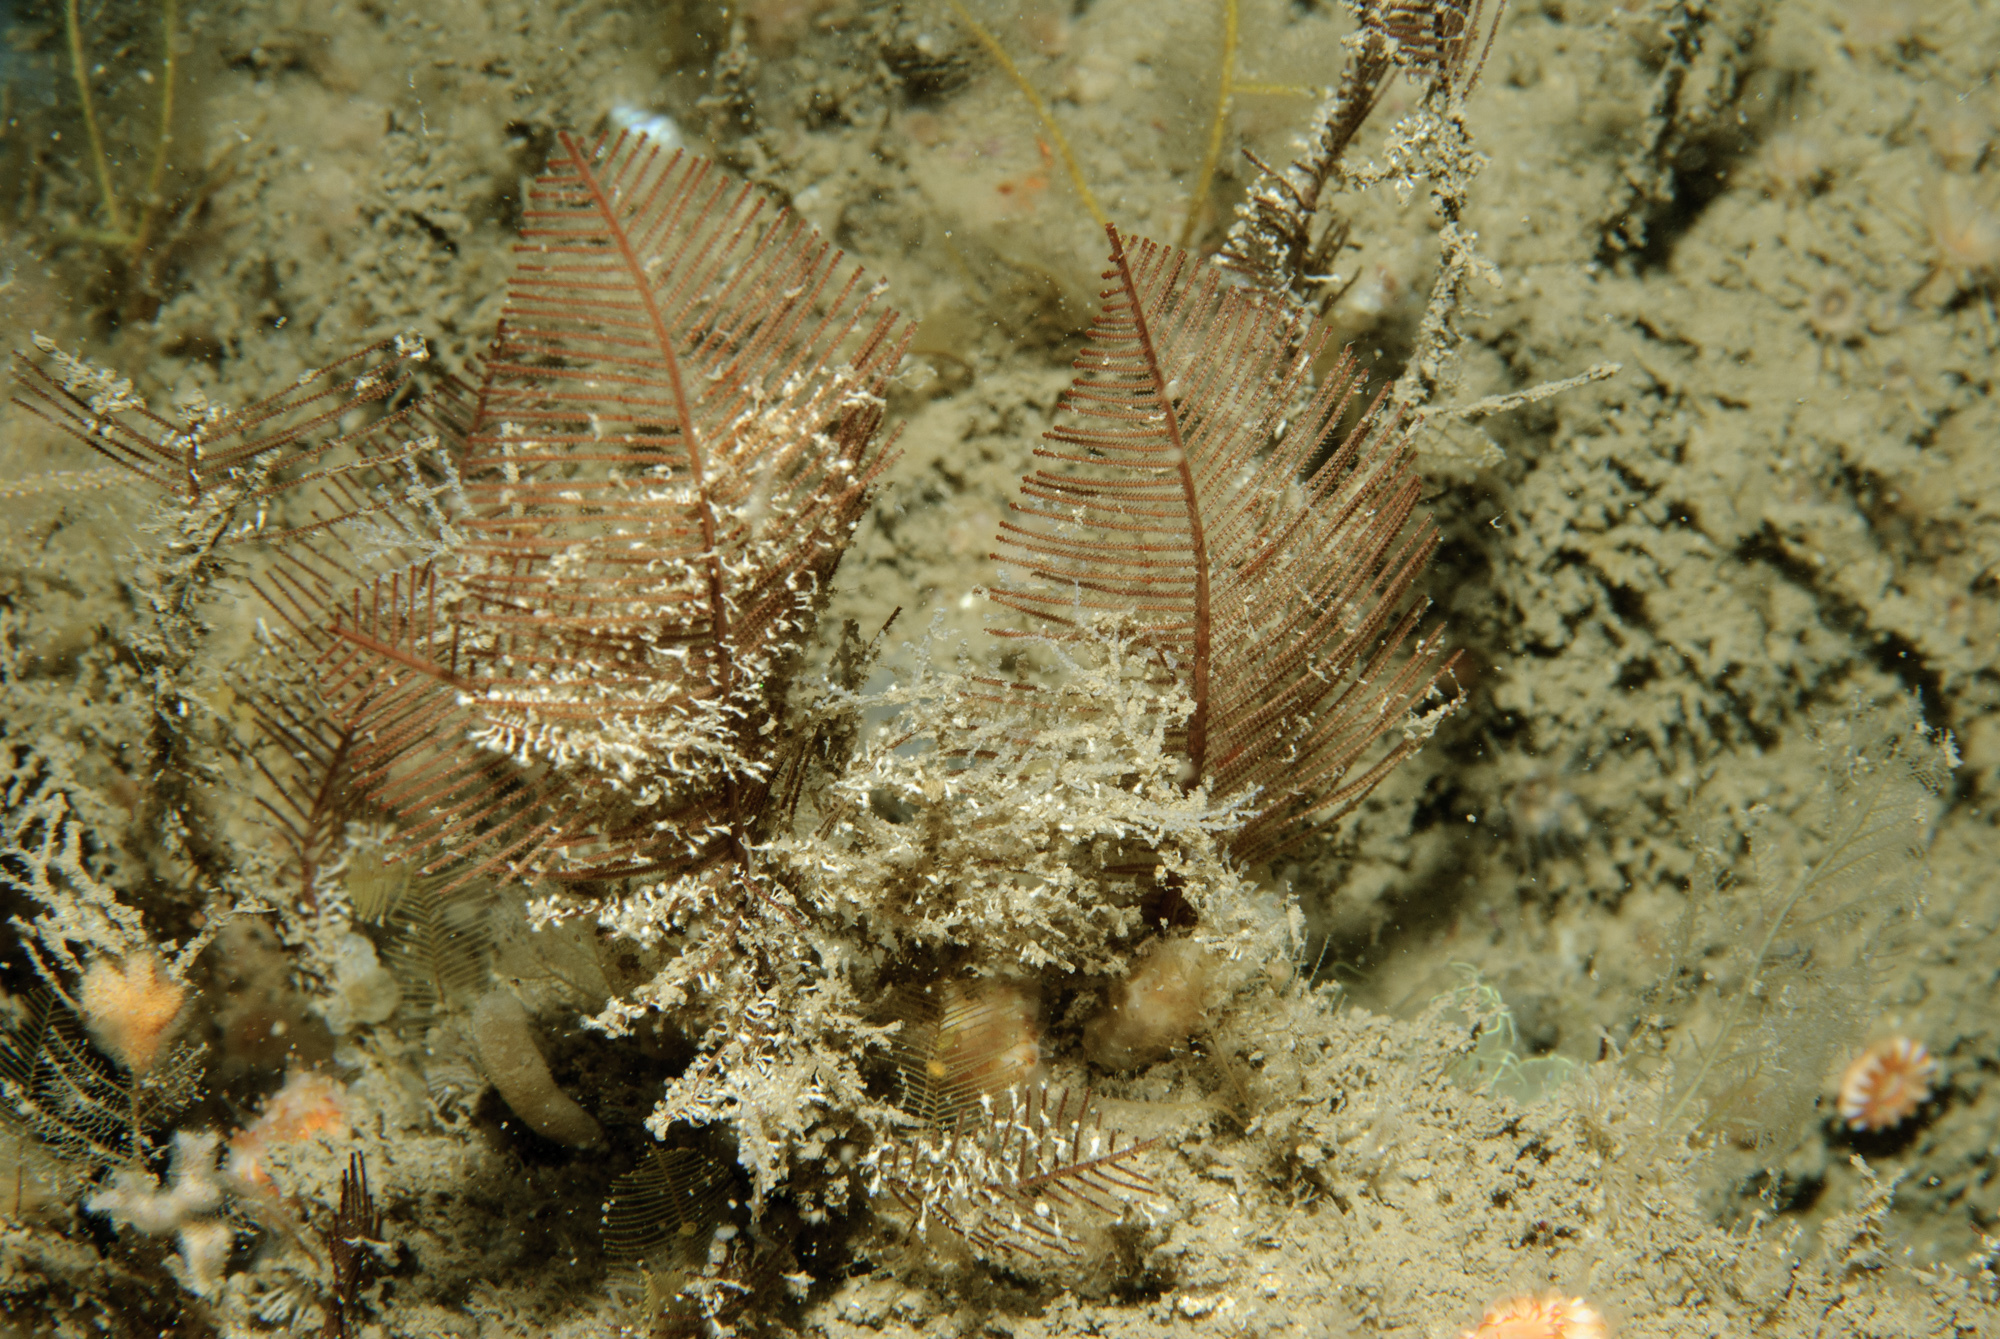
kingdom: Animalia
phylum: Cnidaria
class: Hydrozoa
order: Leptothecata
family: Sertulariidae
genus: Diphasia
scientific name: Diphasia alata
